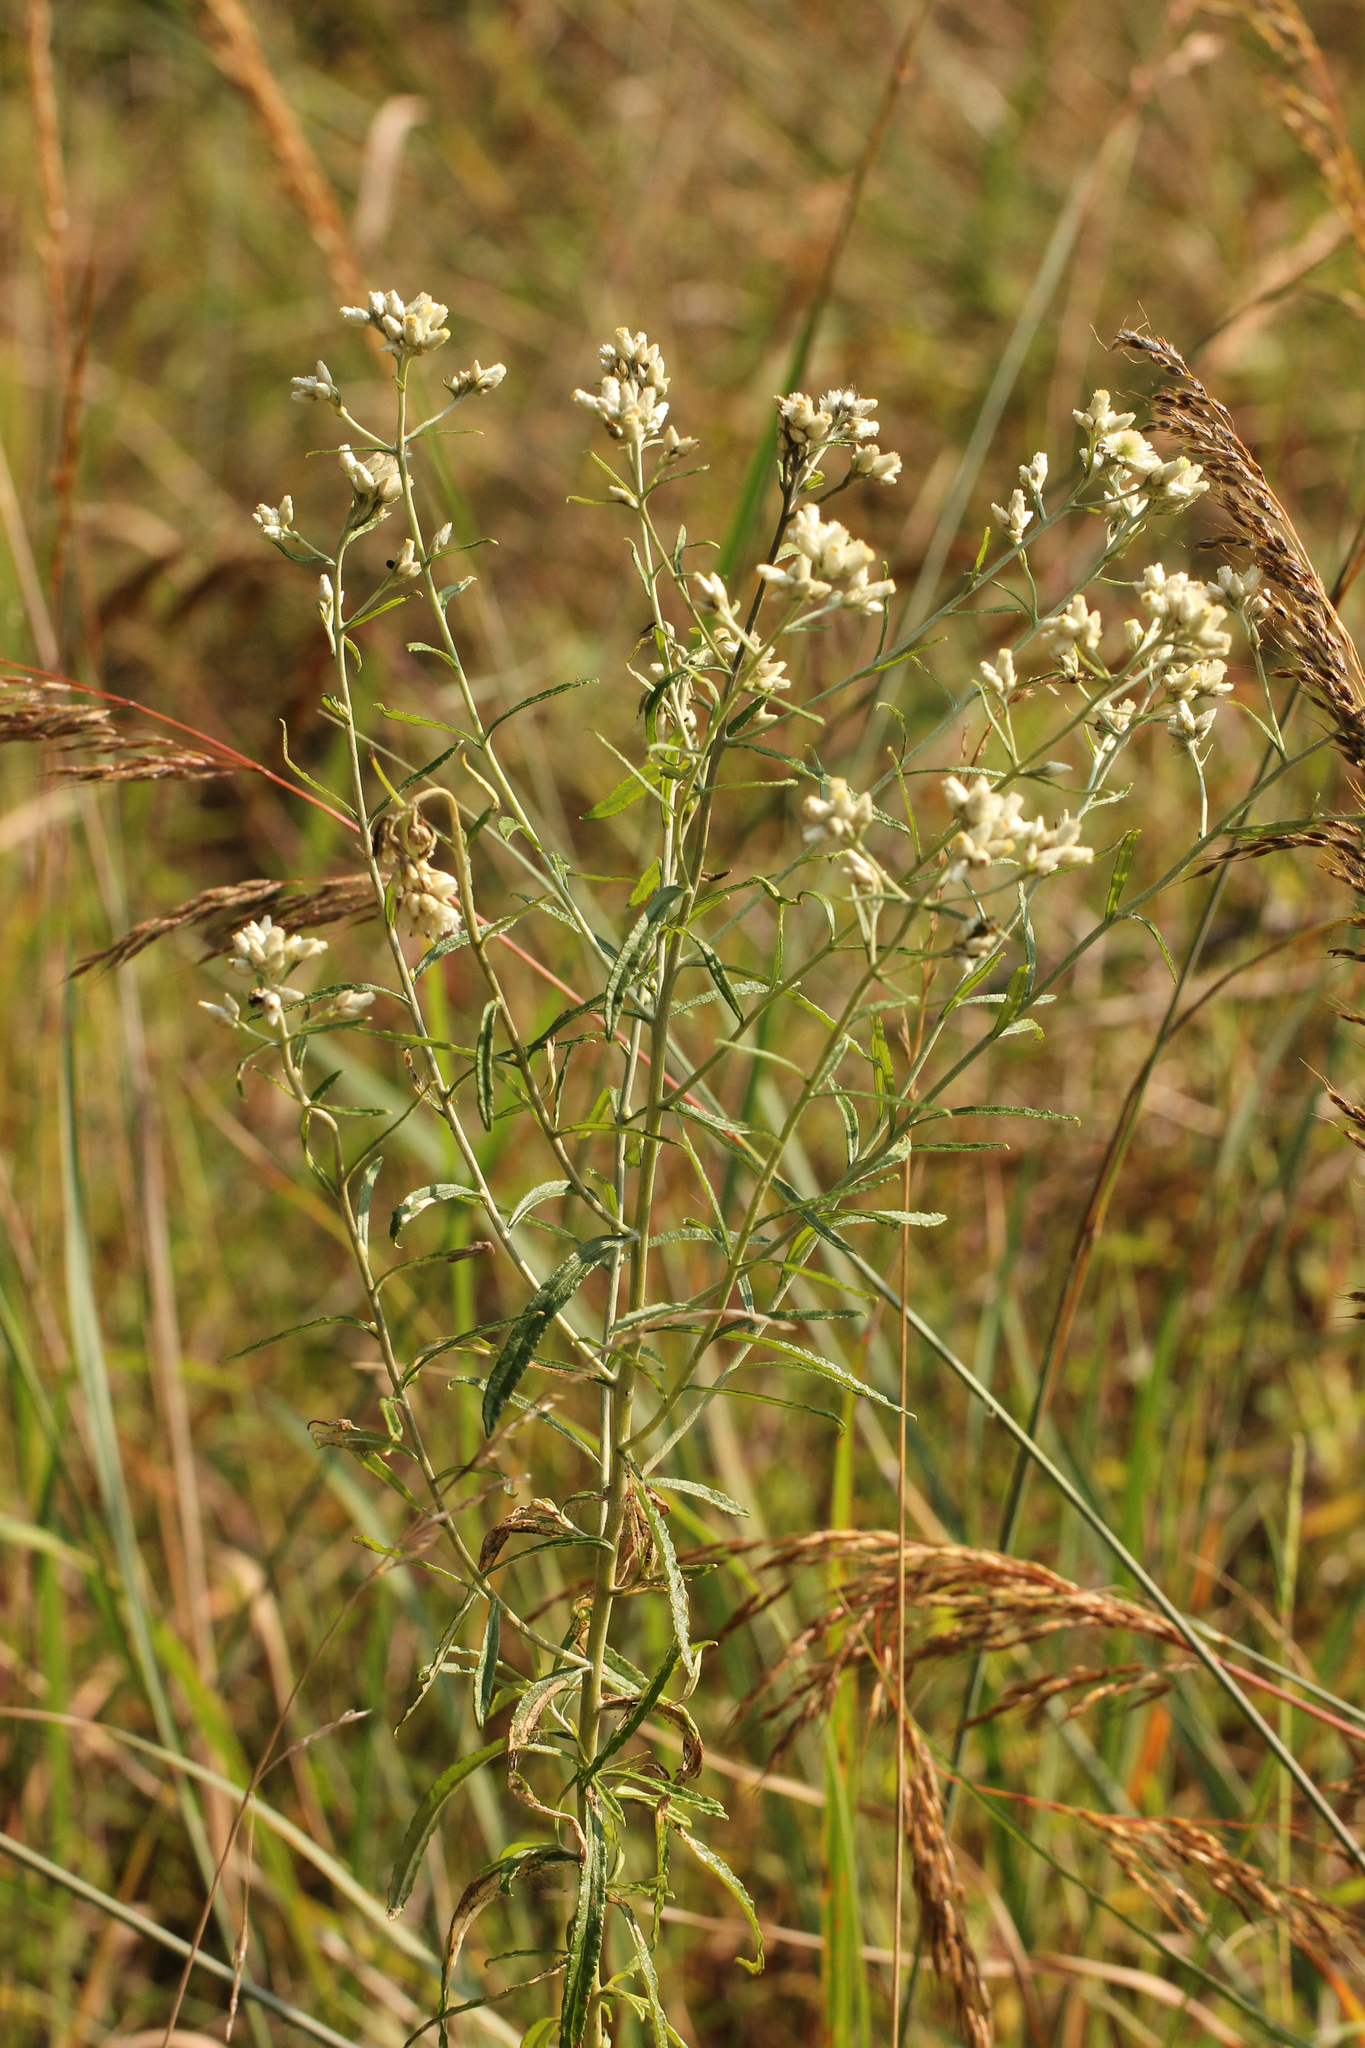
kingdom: Plantae
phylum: Tracheophyta
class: Magnoliopsida
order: Asterales
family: Asteraceae
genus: Pseudognaphalium
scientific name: Pseudognaphalium obtusifolium
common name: Eastern rabbit-tobacco
